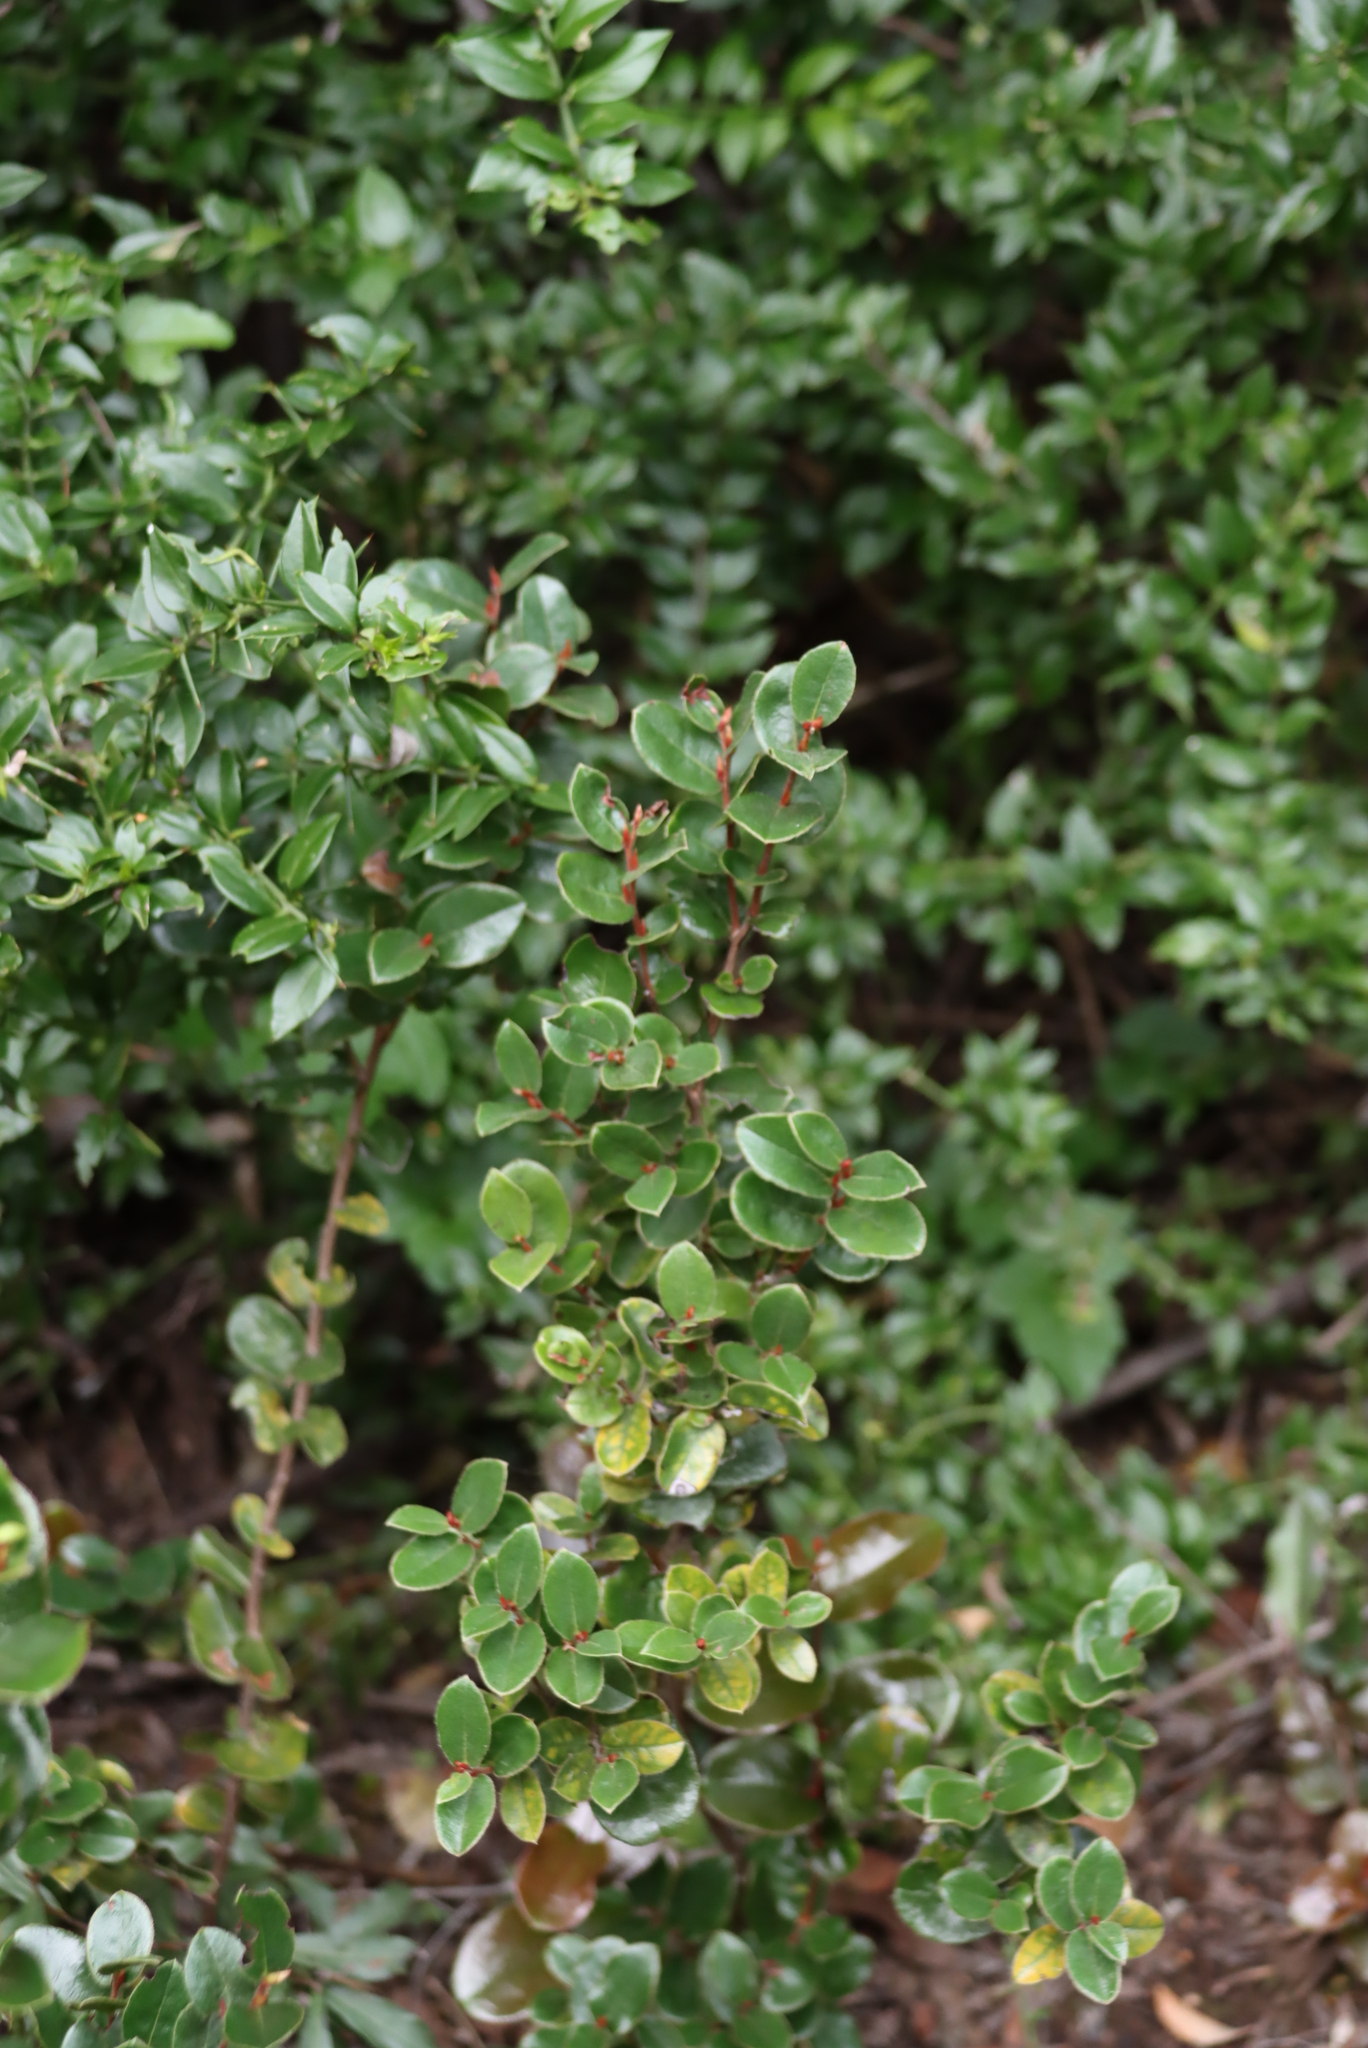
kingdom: Plantae
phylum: Tracheophyta
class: Magnoliopsida
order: Ericales
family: Primulaceae
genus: Myrsine
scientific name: Myrsine africana
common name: African-boxwood
